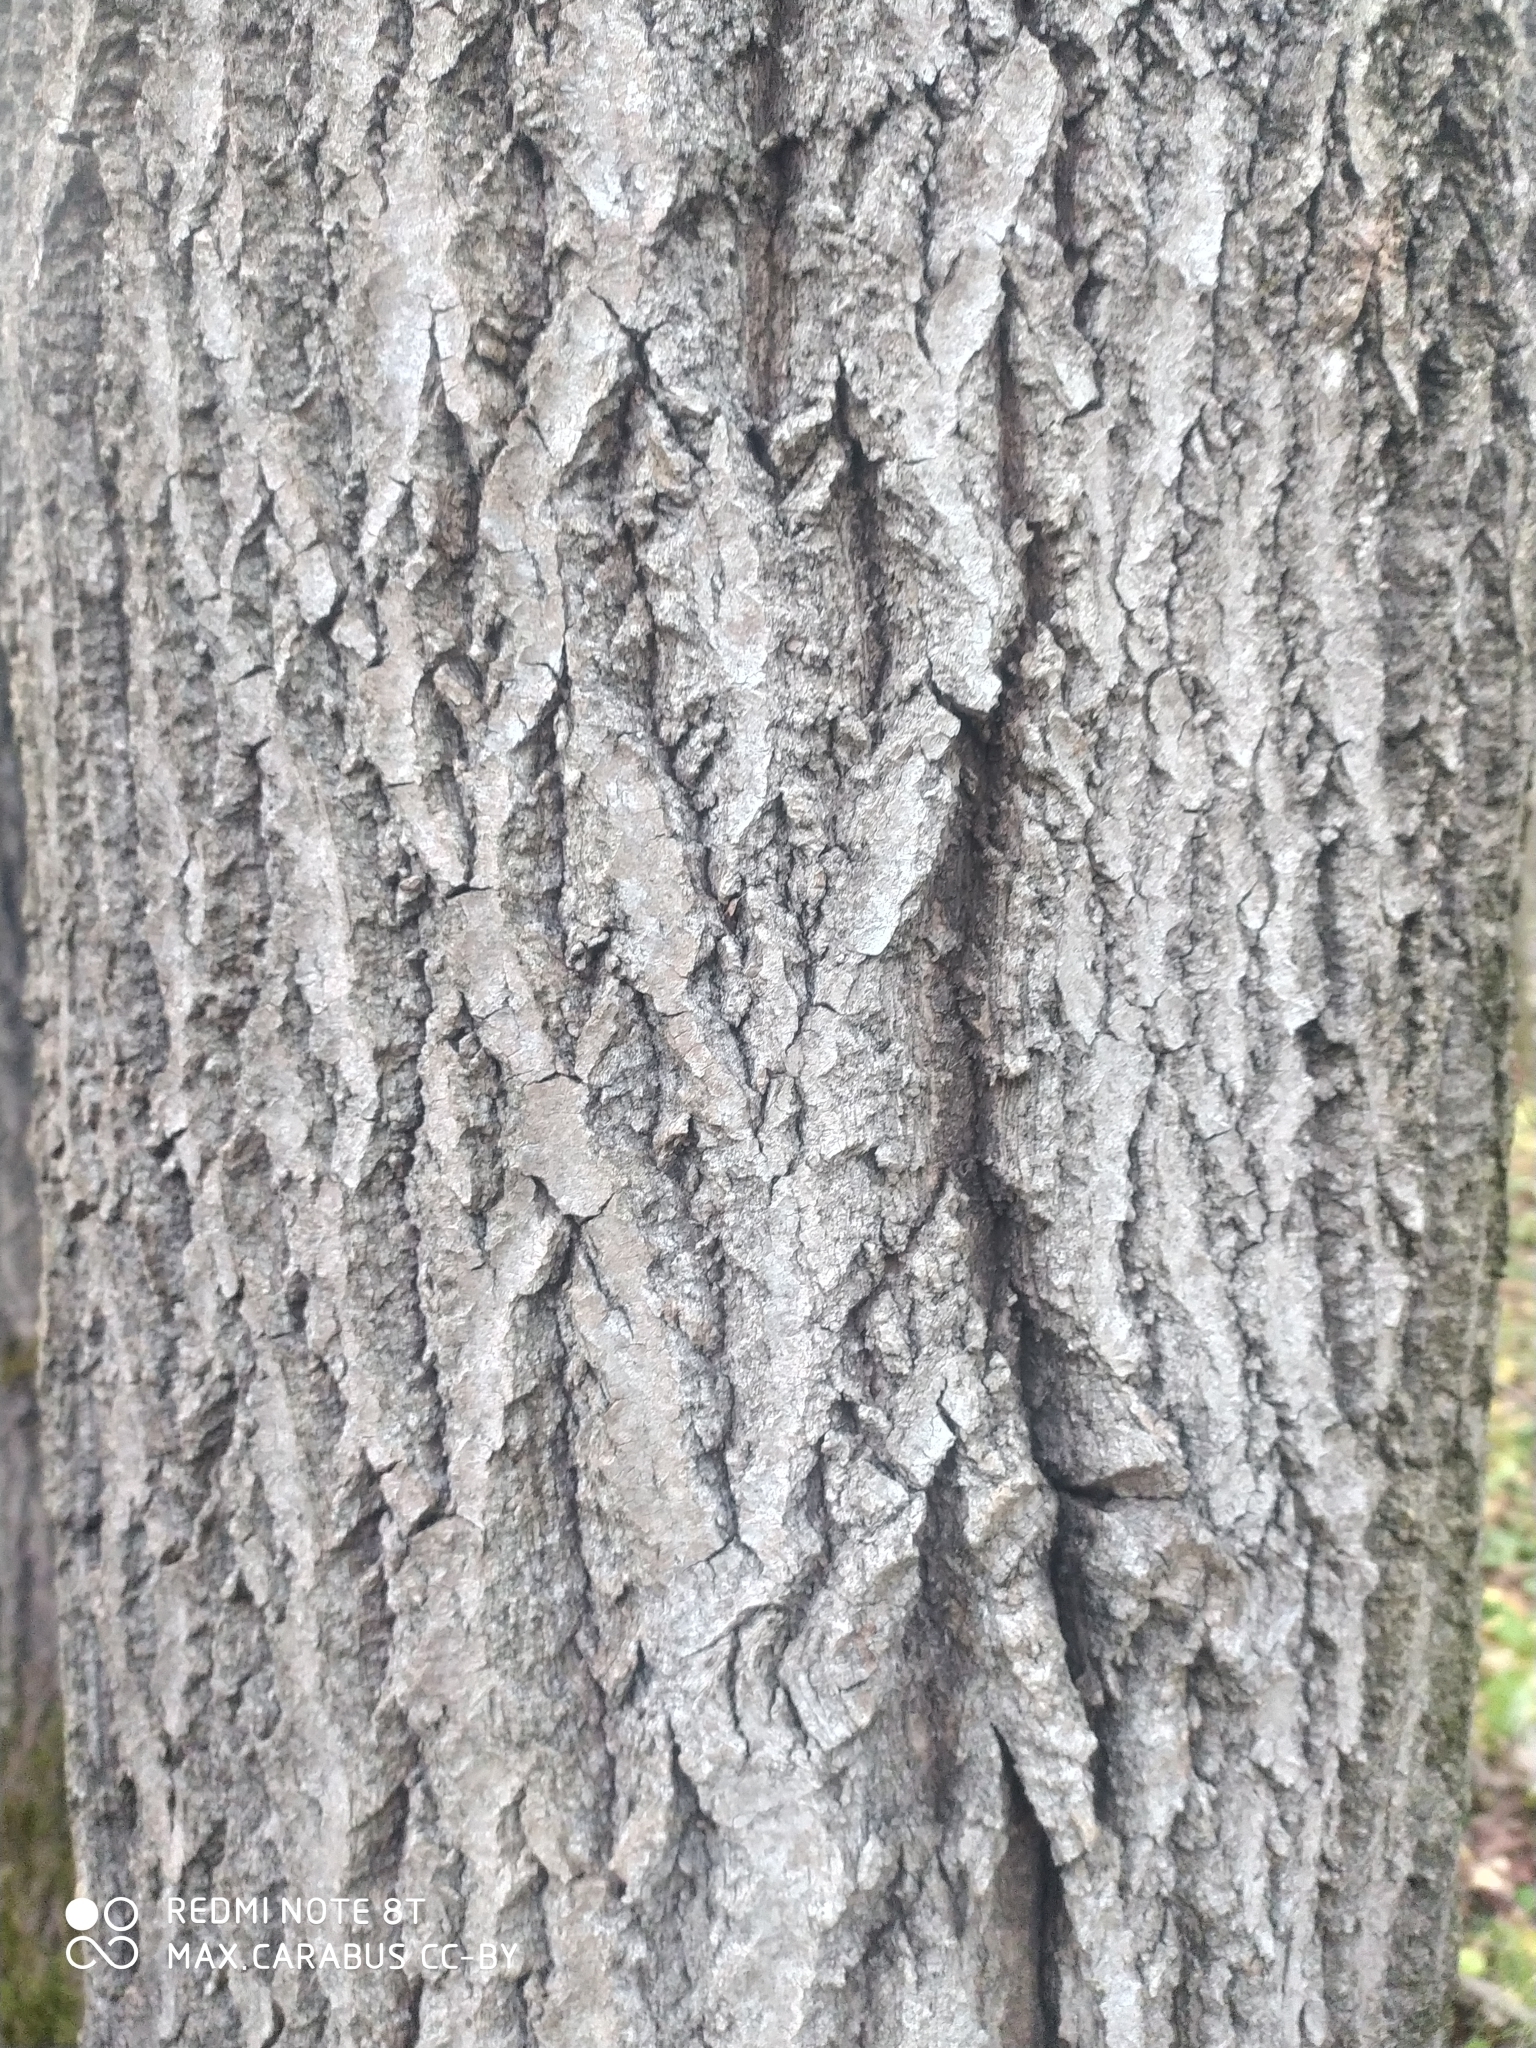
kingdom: Plantae
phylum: Tracheophyta
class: Magnoliopsida
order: Malpighiales
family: Salicaceae
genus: Populus
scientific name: Populus tremula
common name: European aspen
